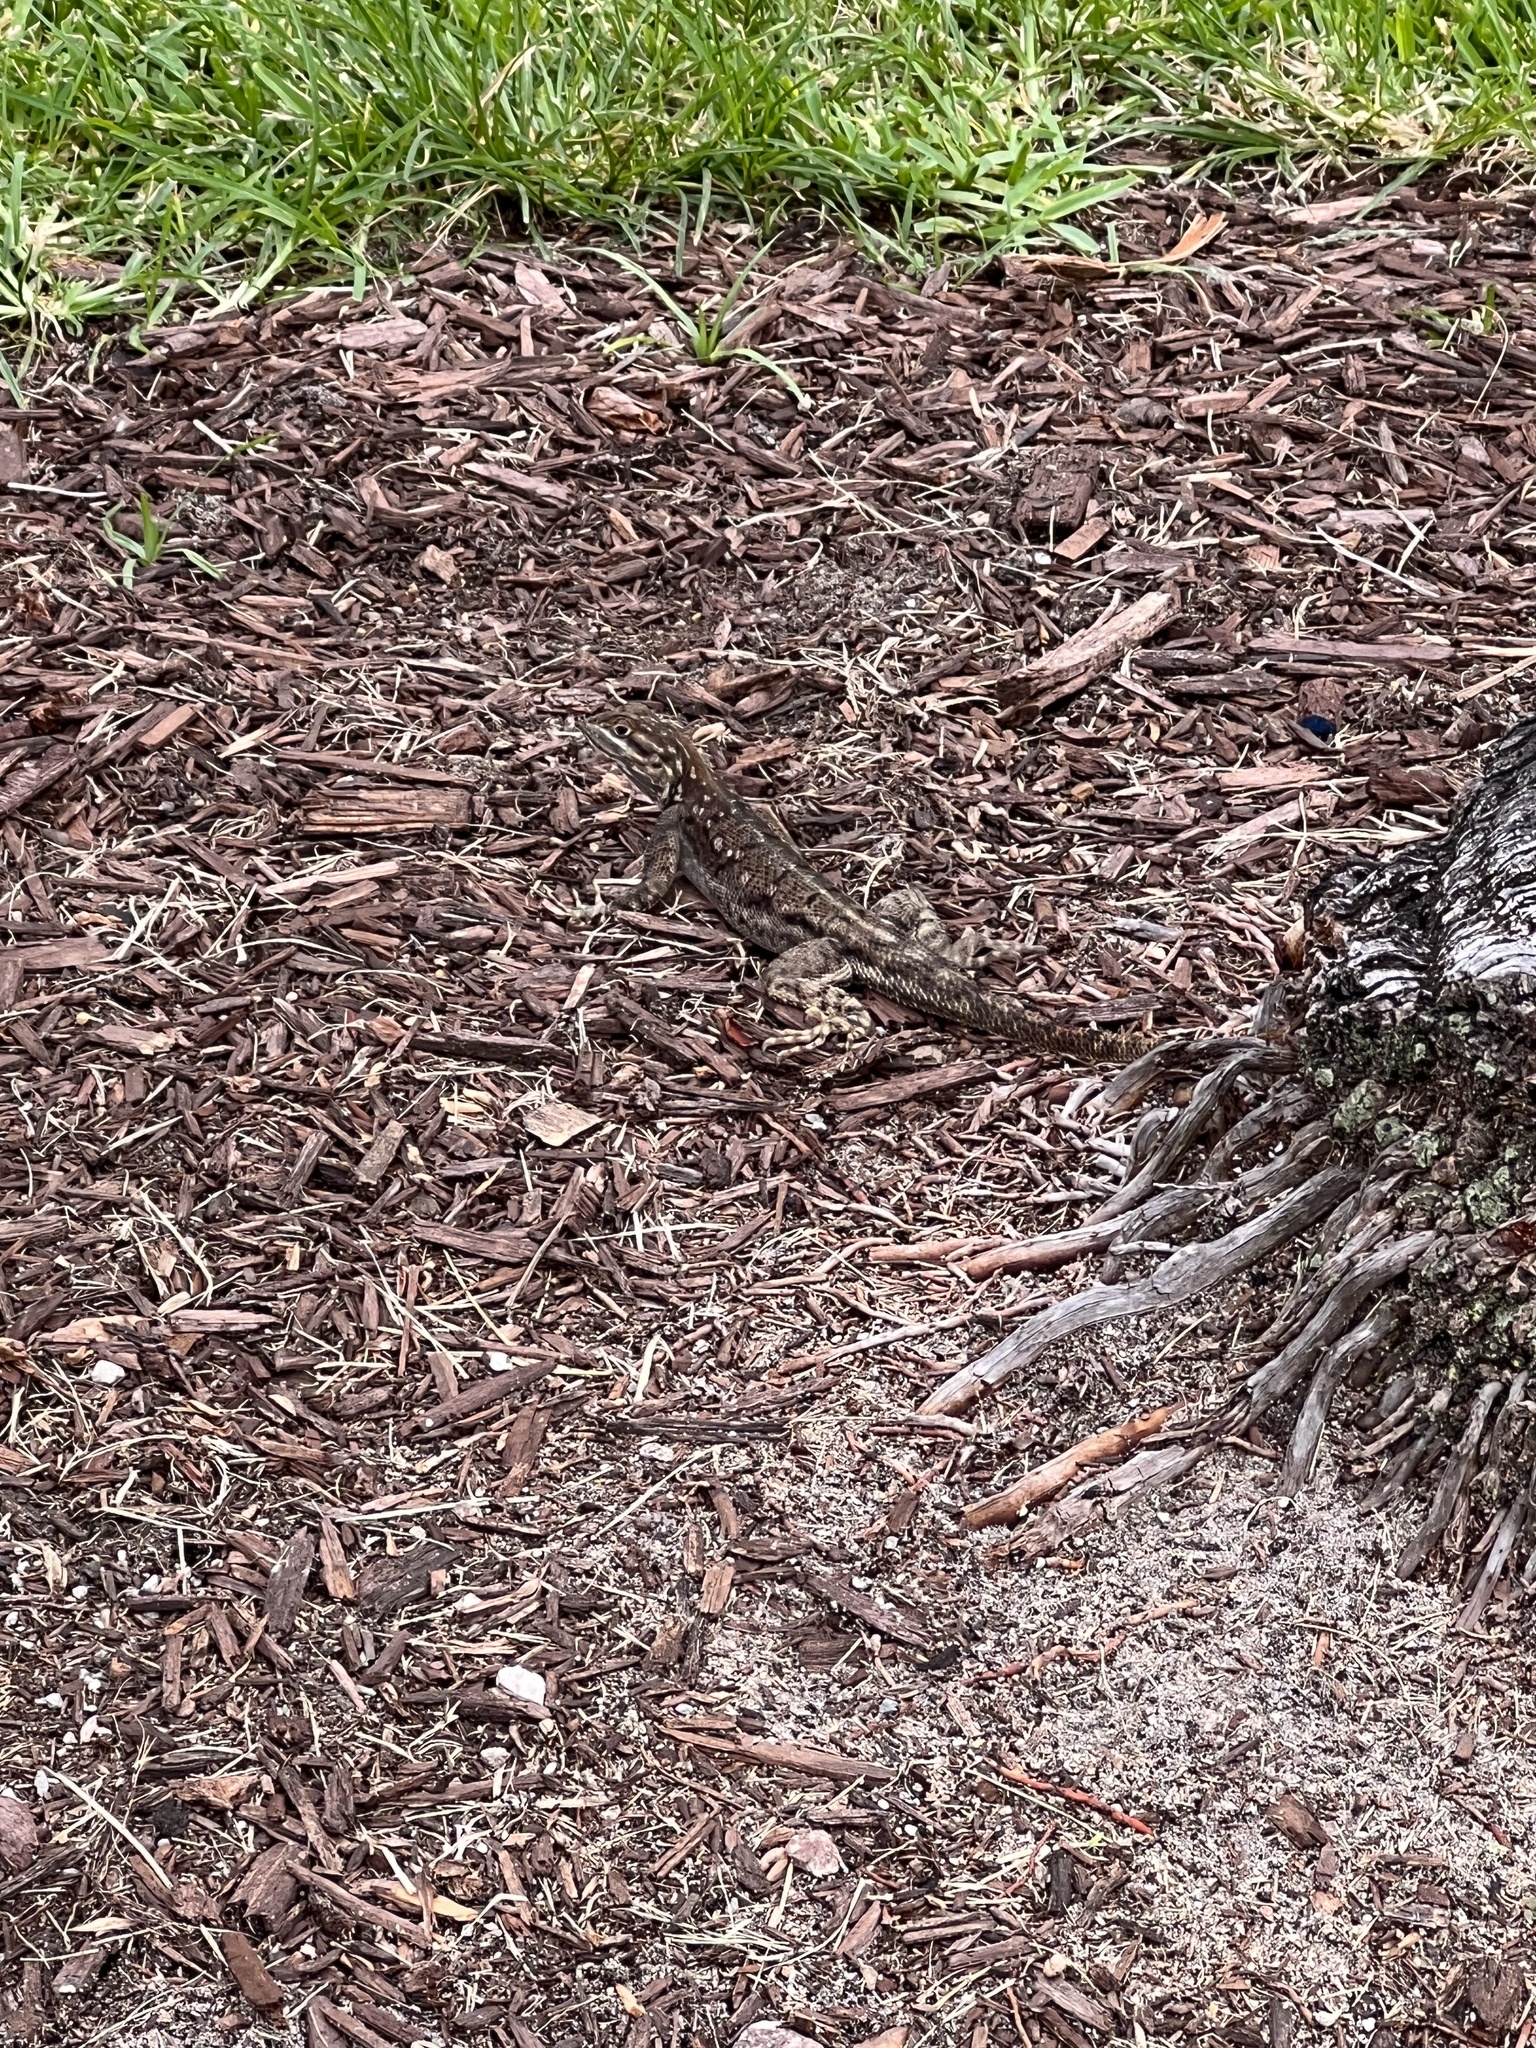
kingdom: Animalia
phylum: Chordata
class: Squamata
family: Agamidae
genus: Agama
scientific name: Agama picticauda
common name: Red-headed agama
